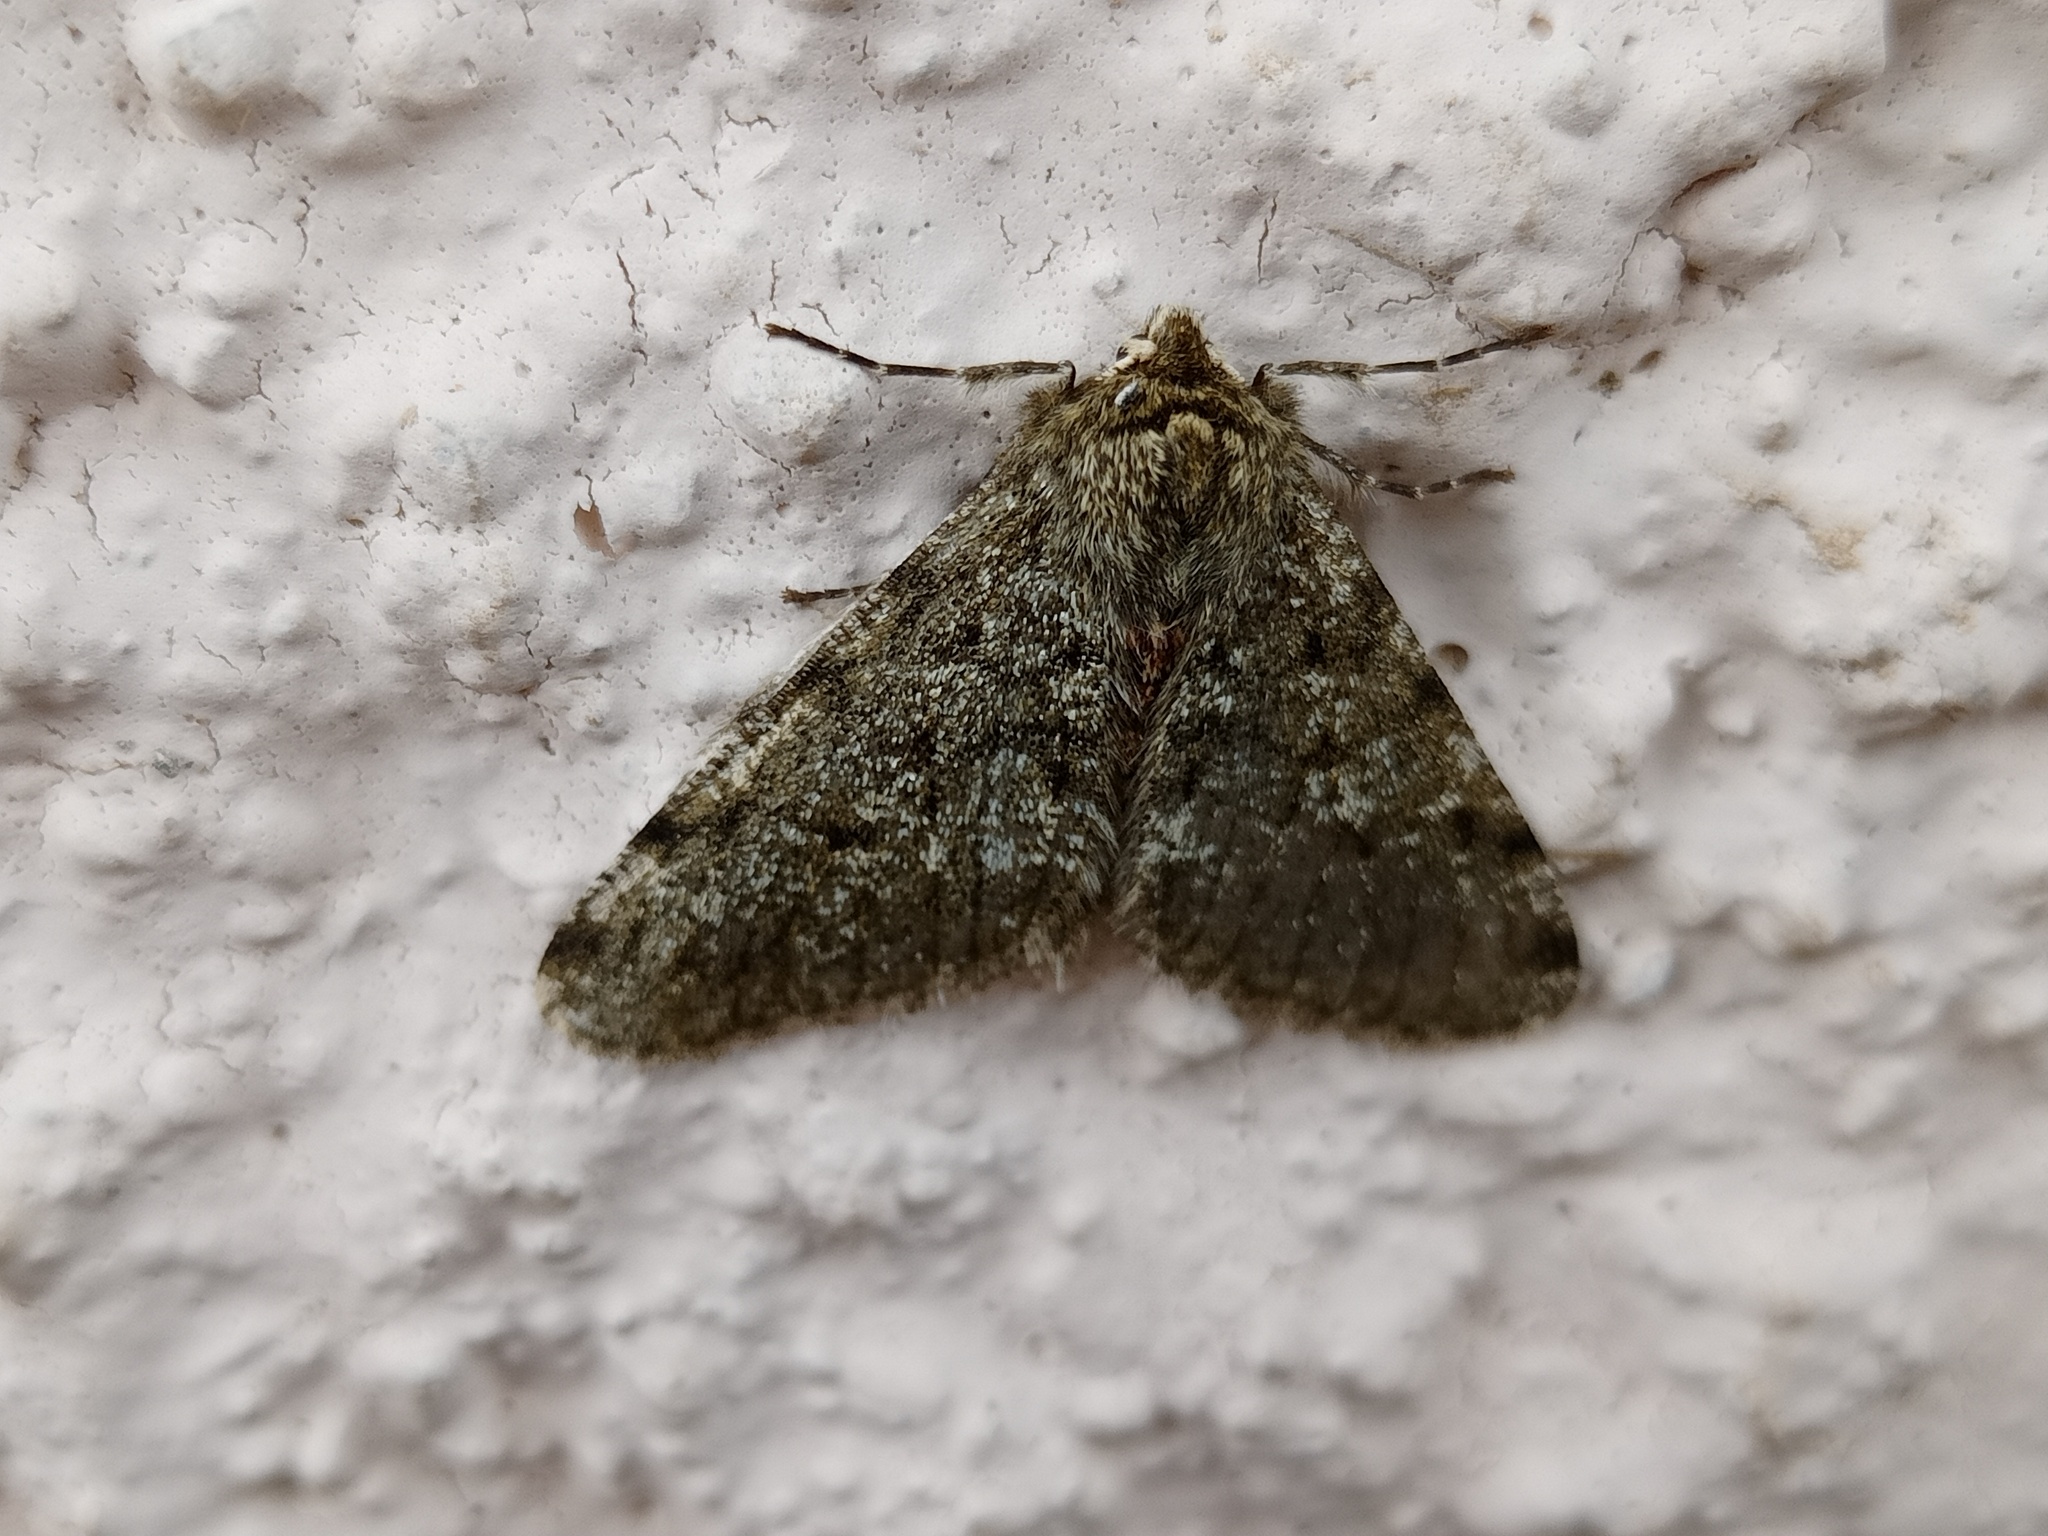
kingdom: Animalia
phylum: Arthropoda
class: Insecta
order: Lepidoptera
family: Geometridae
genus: Phigalia
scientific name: Phigalia pilosaria
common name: Pale brindled beauty
